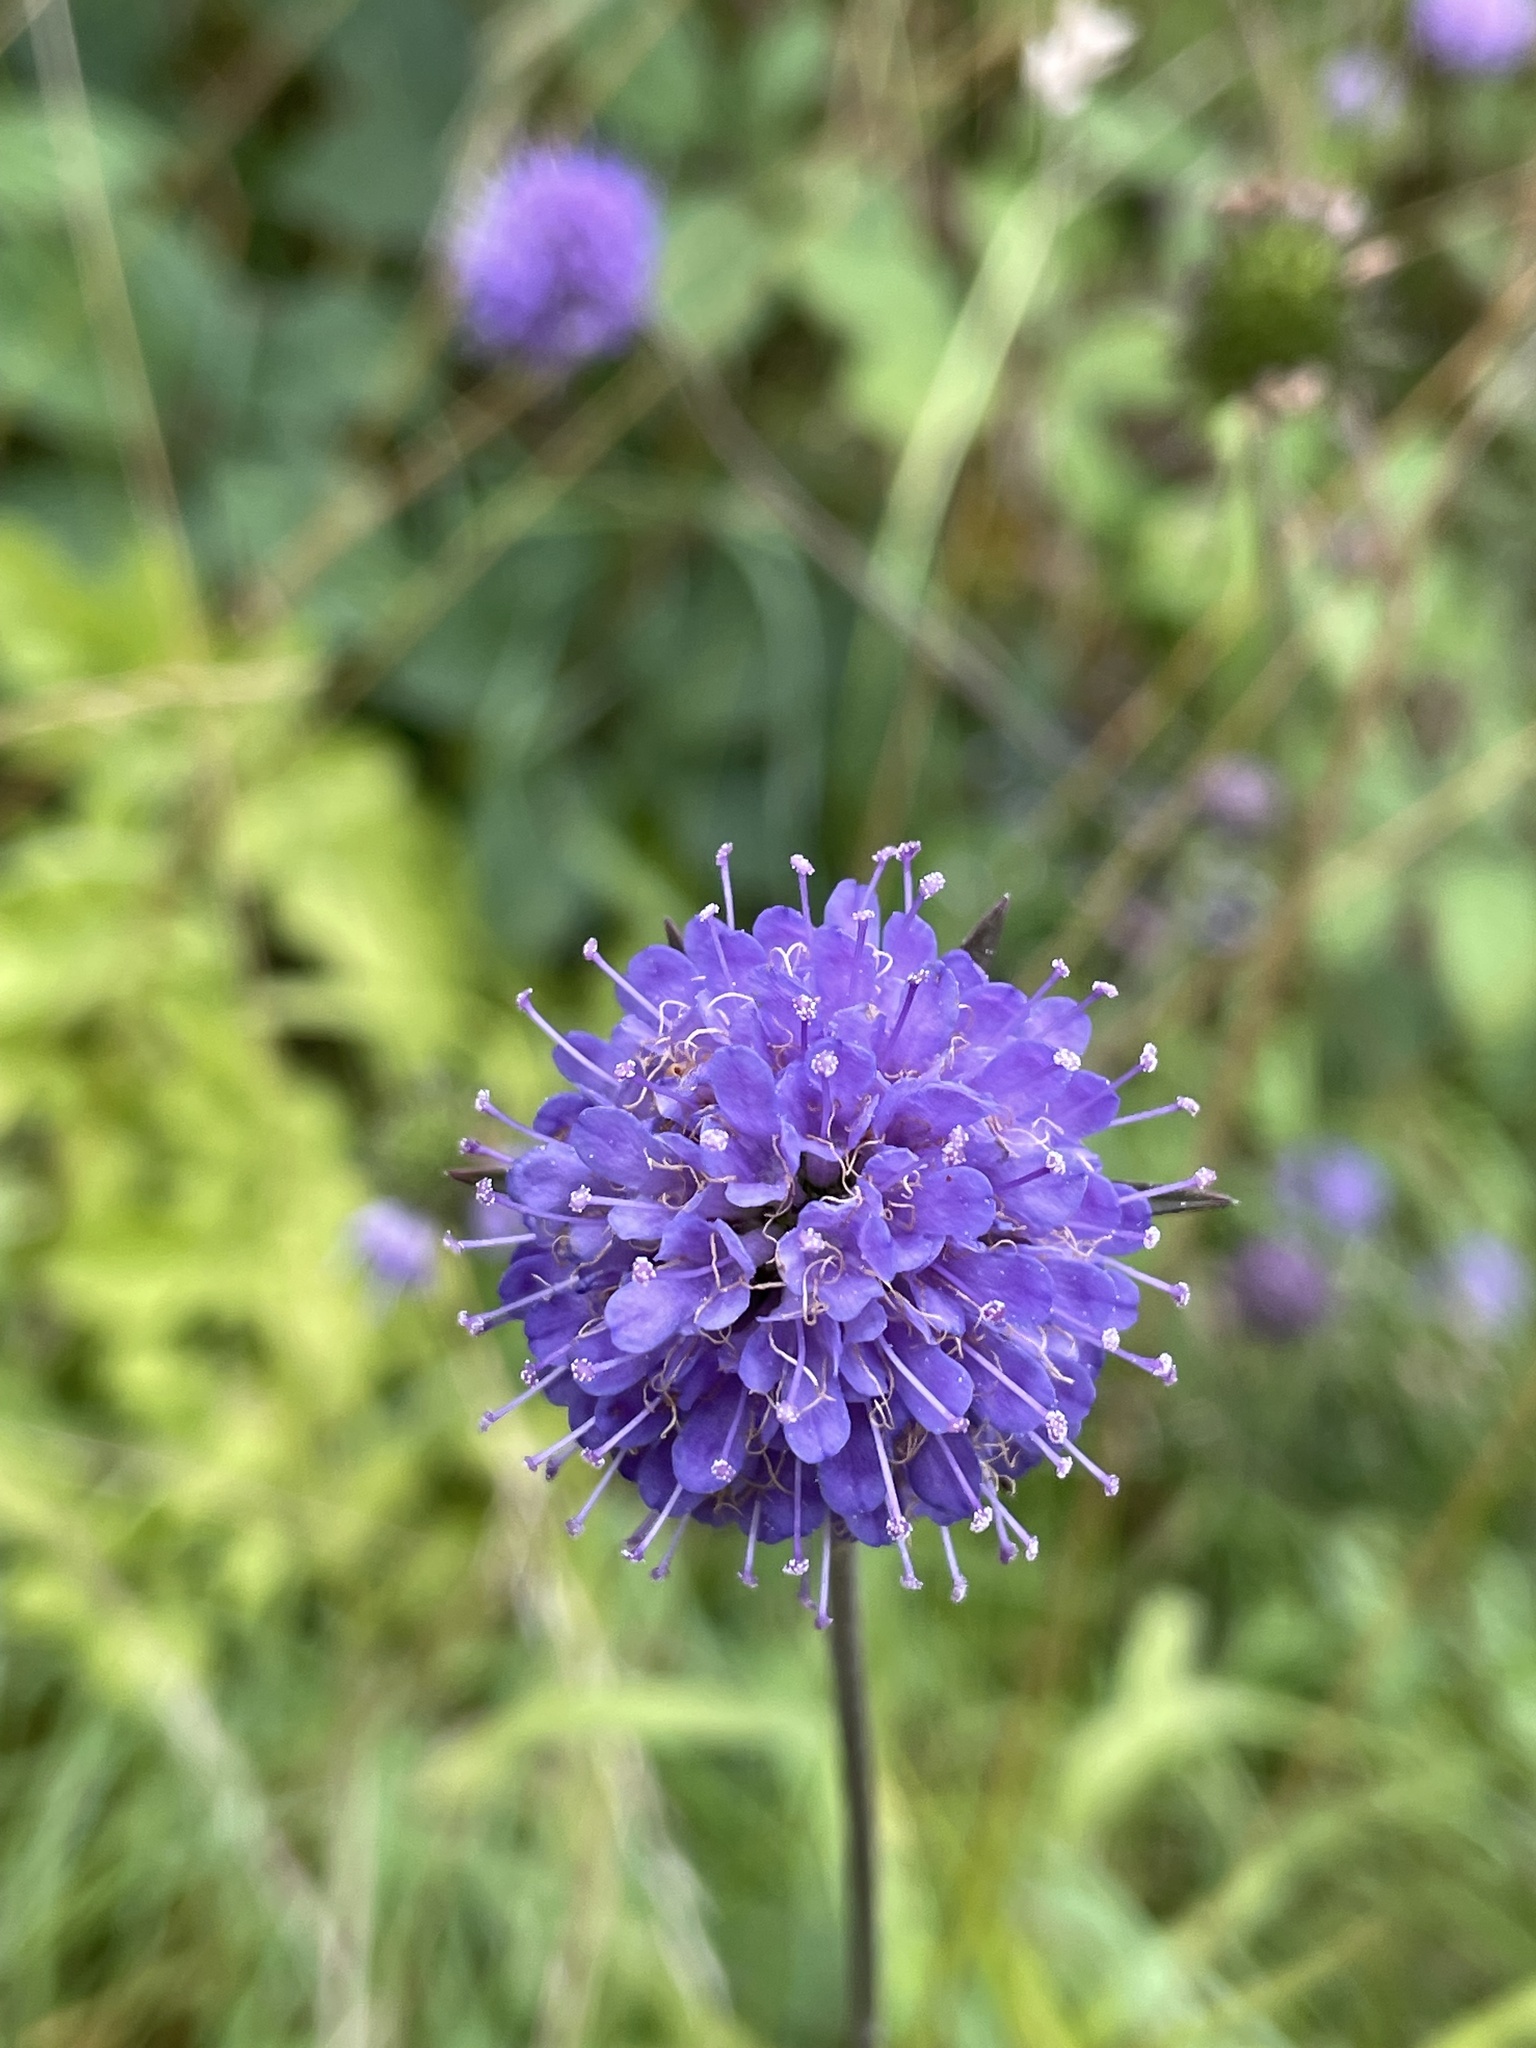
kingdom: Plantae
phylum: Tracheophyta
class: Magnoliopsida
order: Dipsacales
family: Caprifoliaceae
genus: Succisa
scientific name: Succisa pratensis
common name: Devil's-bit
